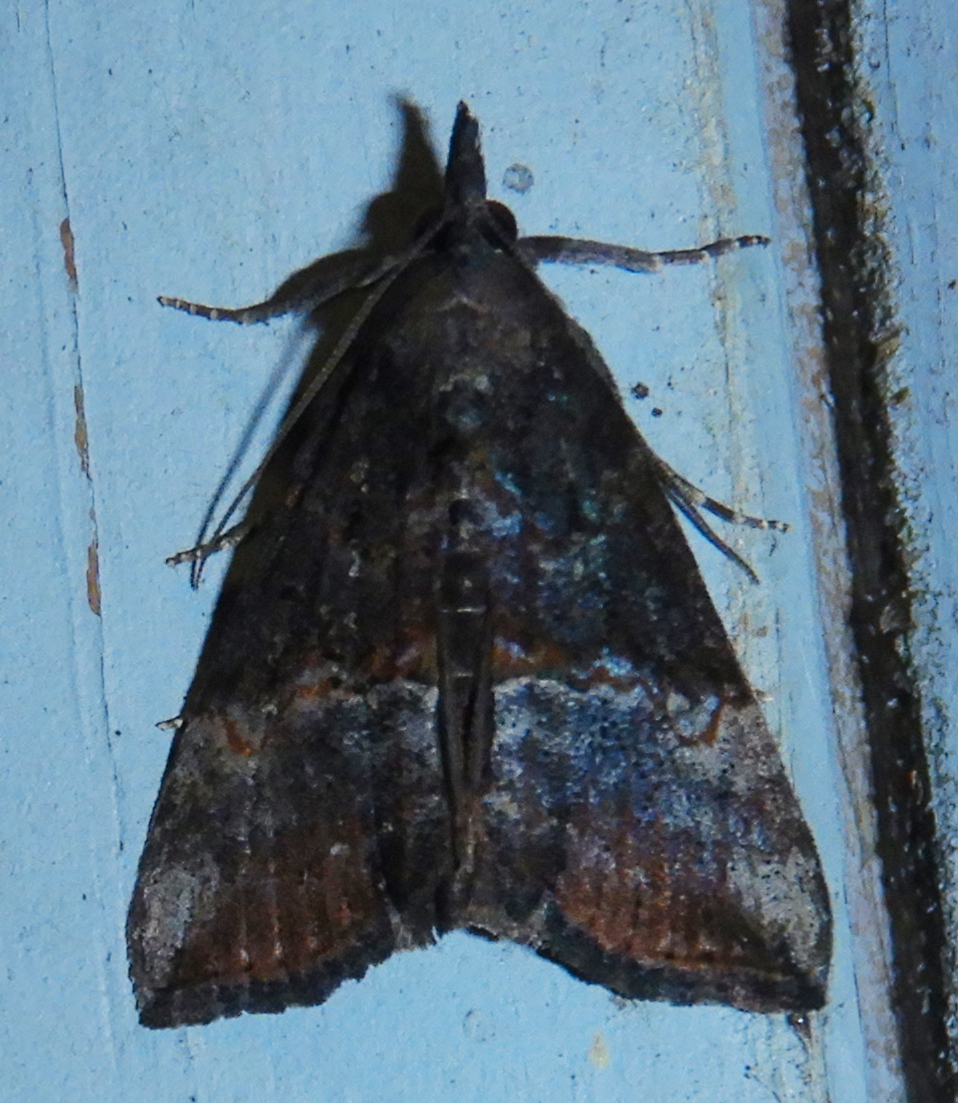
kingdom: Animalia
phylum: Arthropoda
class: Insecta
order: Lepidoptera
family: Erebidae
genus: Hypena
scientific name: Hypena scabra
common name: Green cloverworm
